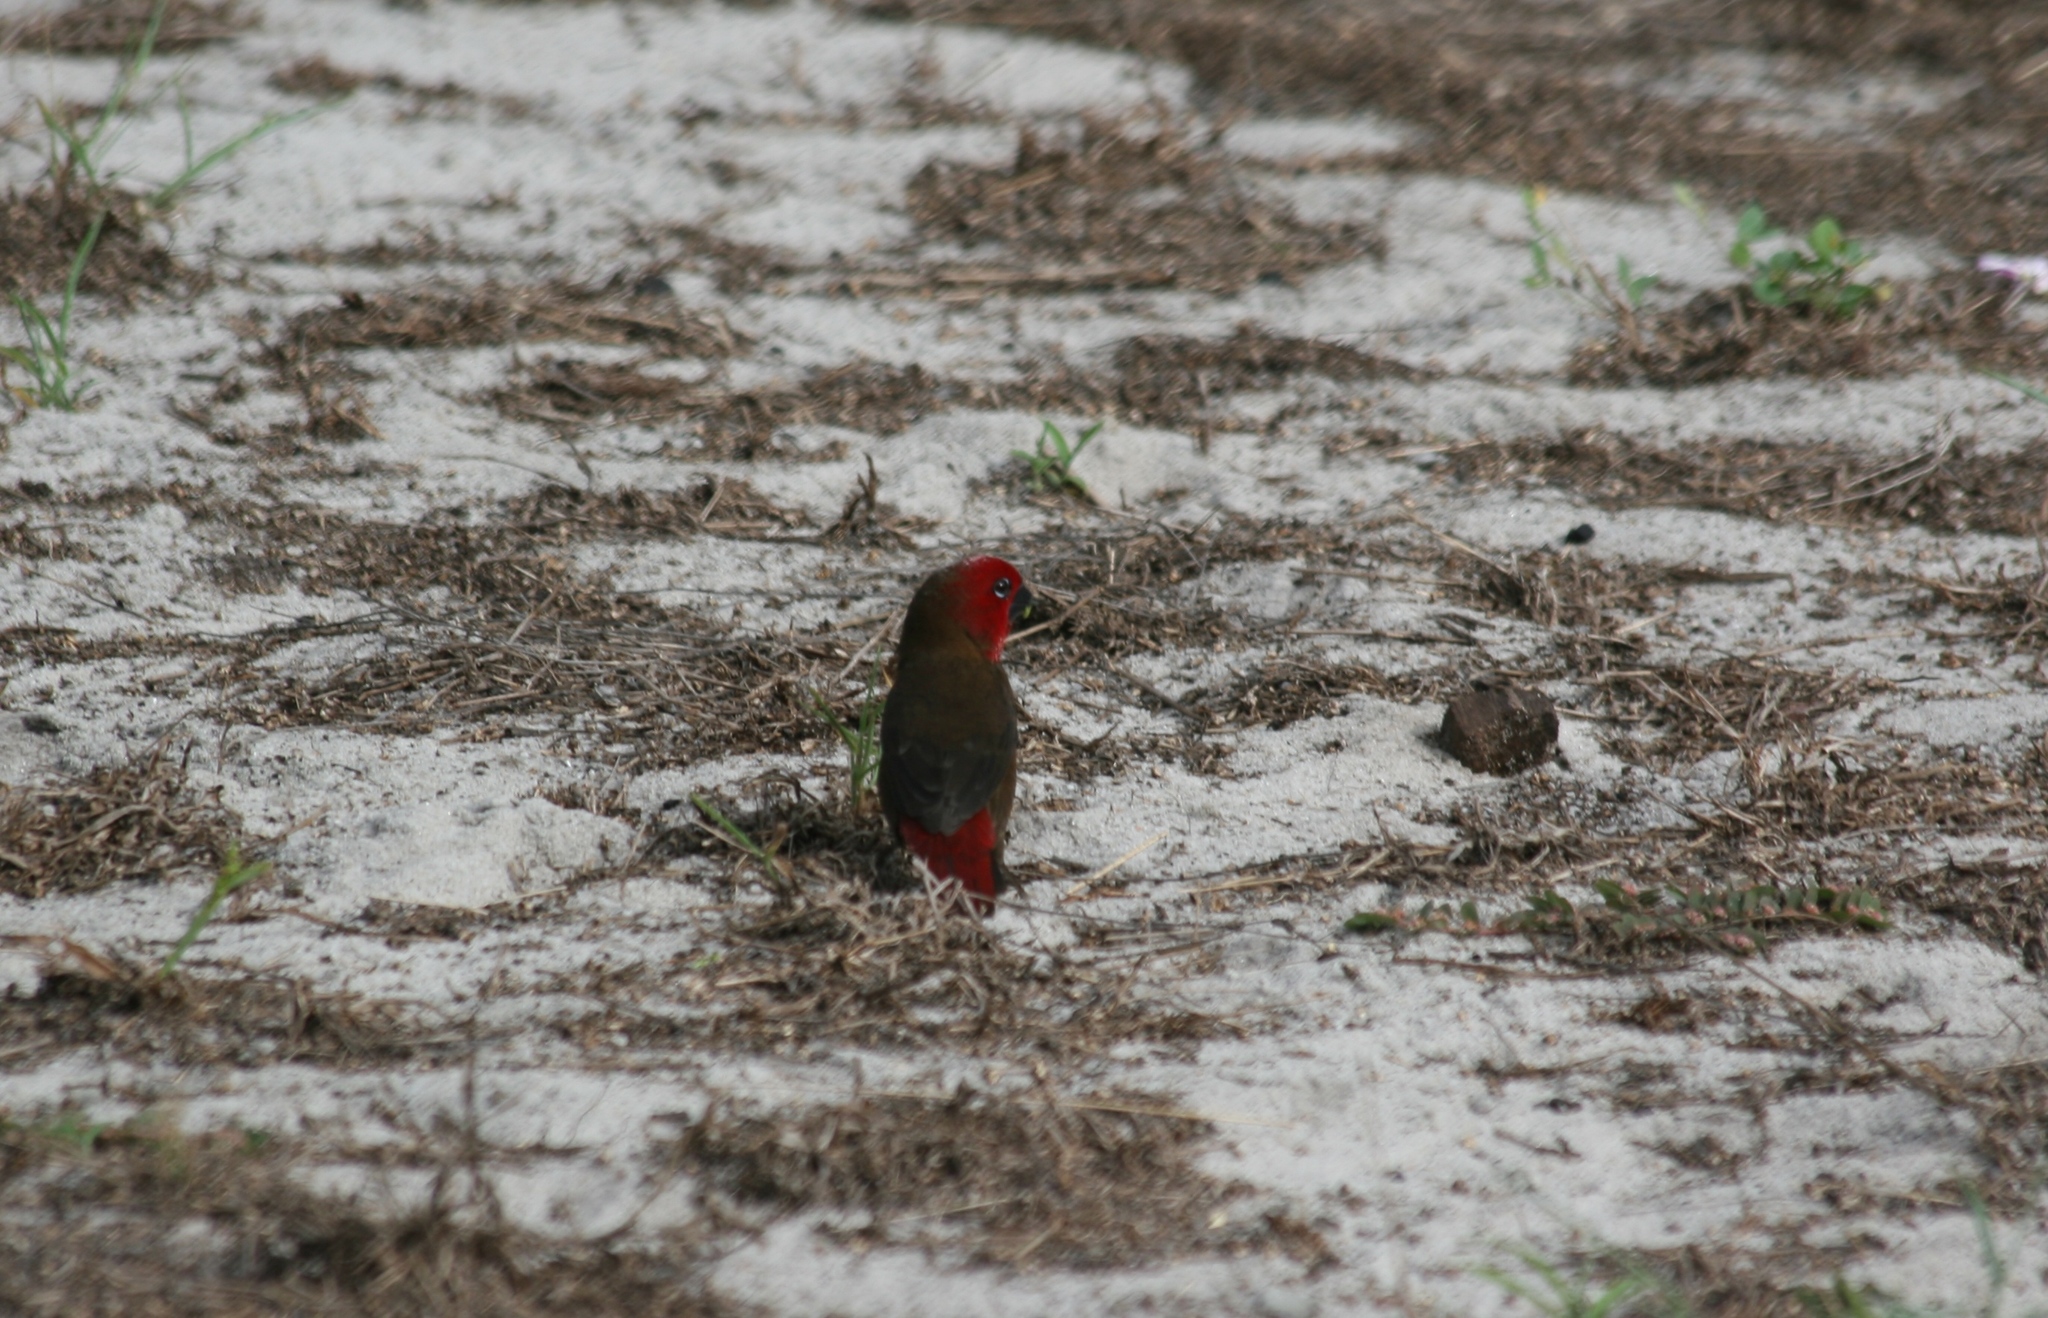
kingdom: Animalia
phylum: Chordata
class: Aves
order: Passeriformes
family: Estrildidae
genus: Pyrenestes
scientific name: Pyrenestes ostrinus
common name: Black-bellied seedcracker
